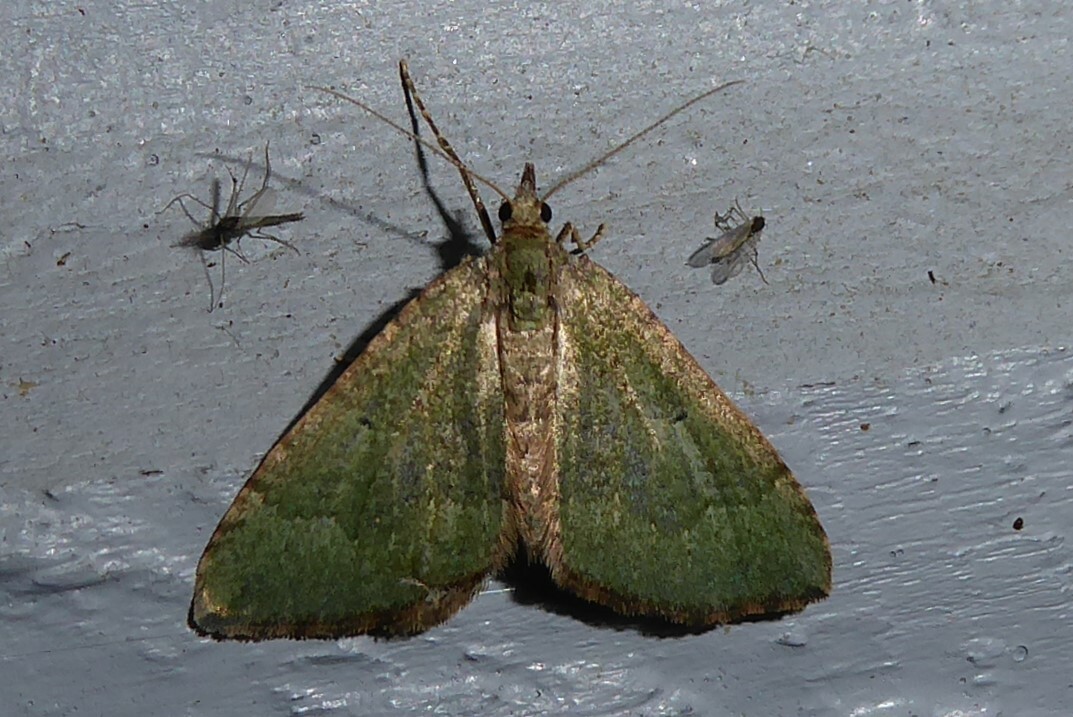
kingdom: Animalia
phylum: Arthropoda
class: Insecta
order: Lepidoptera
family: Geometridae
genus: Epyaxa
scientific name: Epyaxa rosearia
